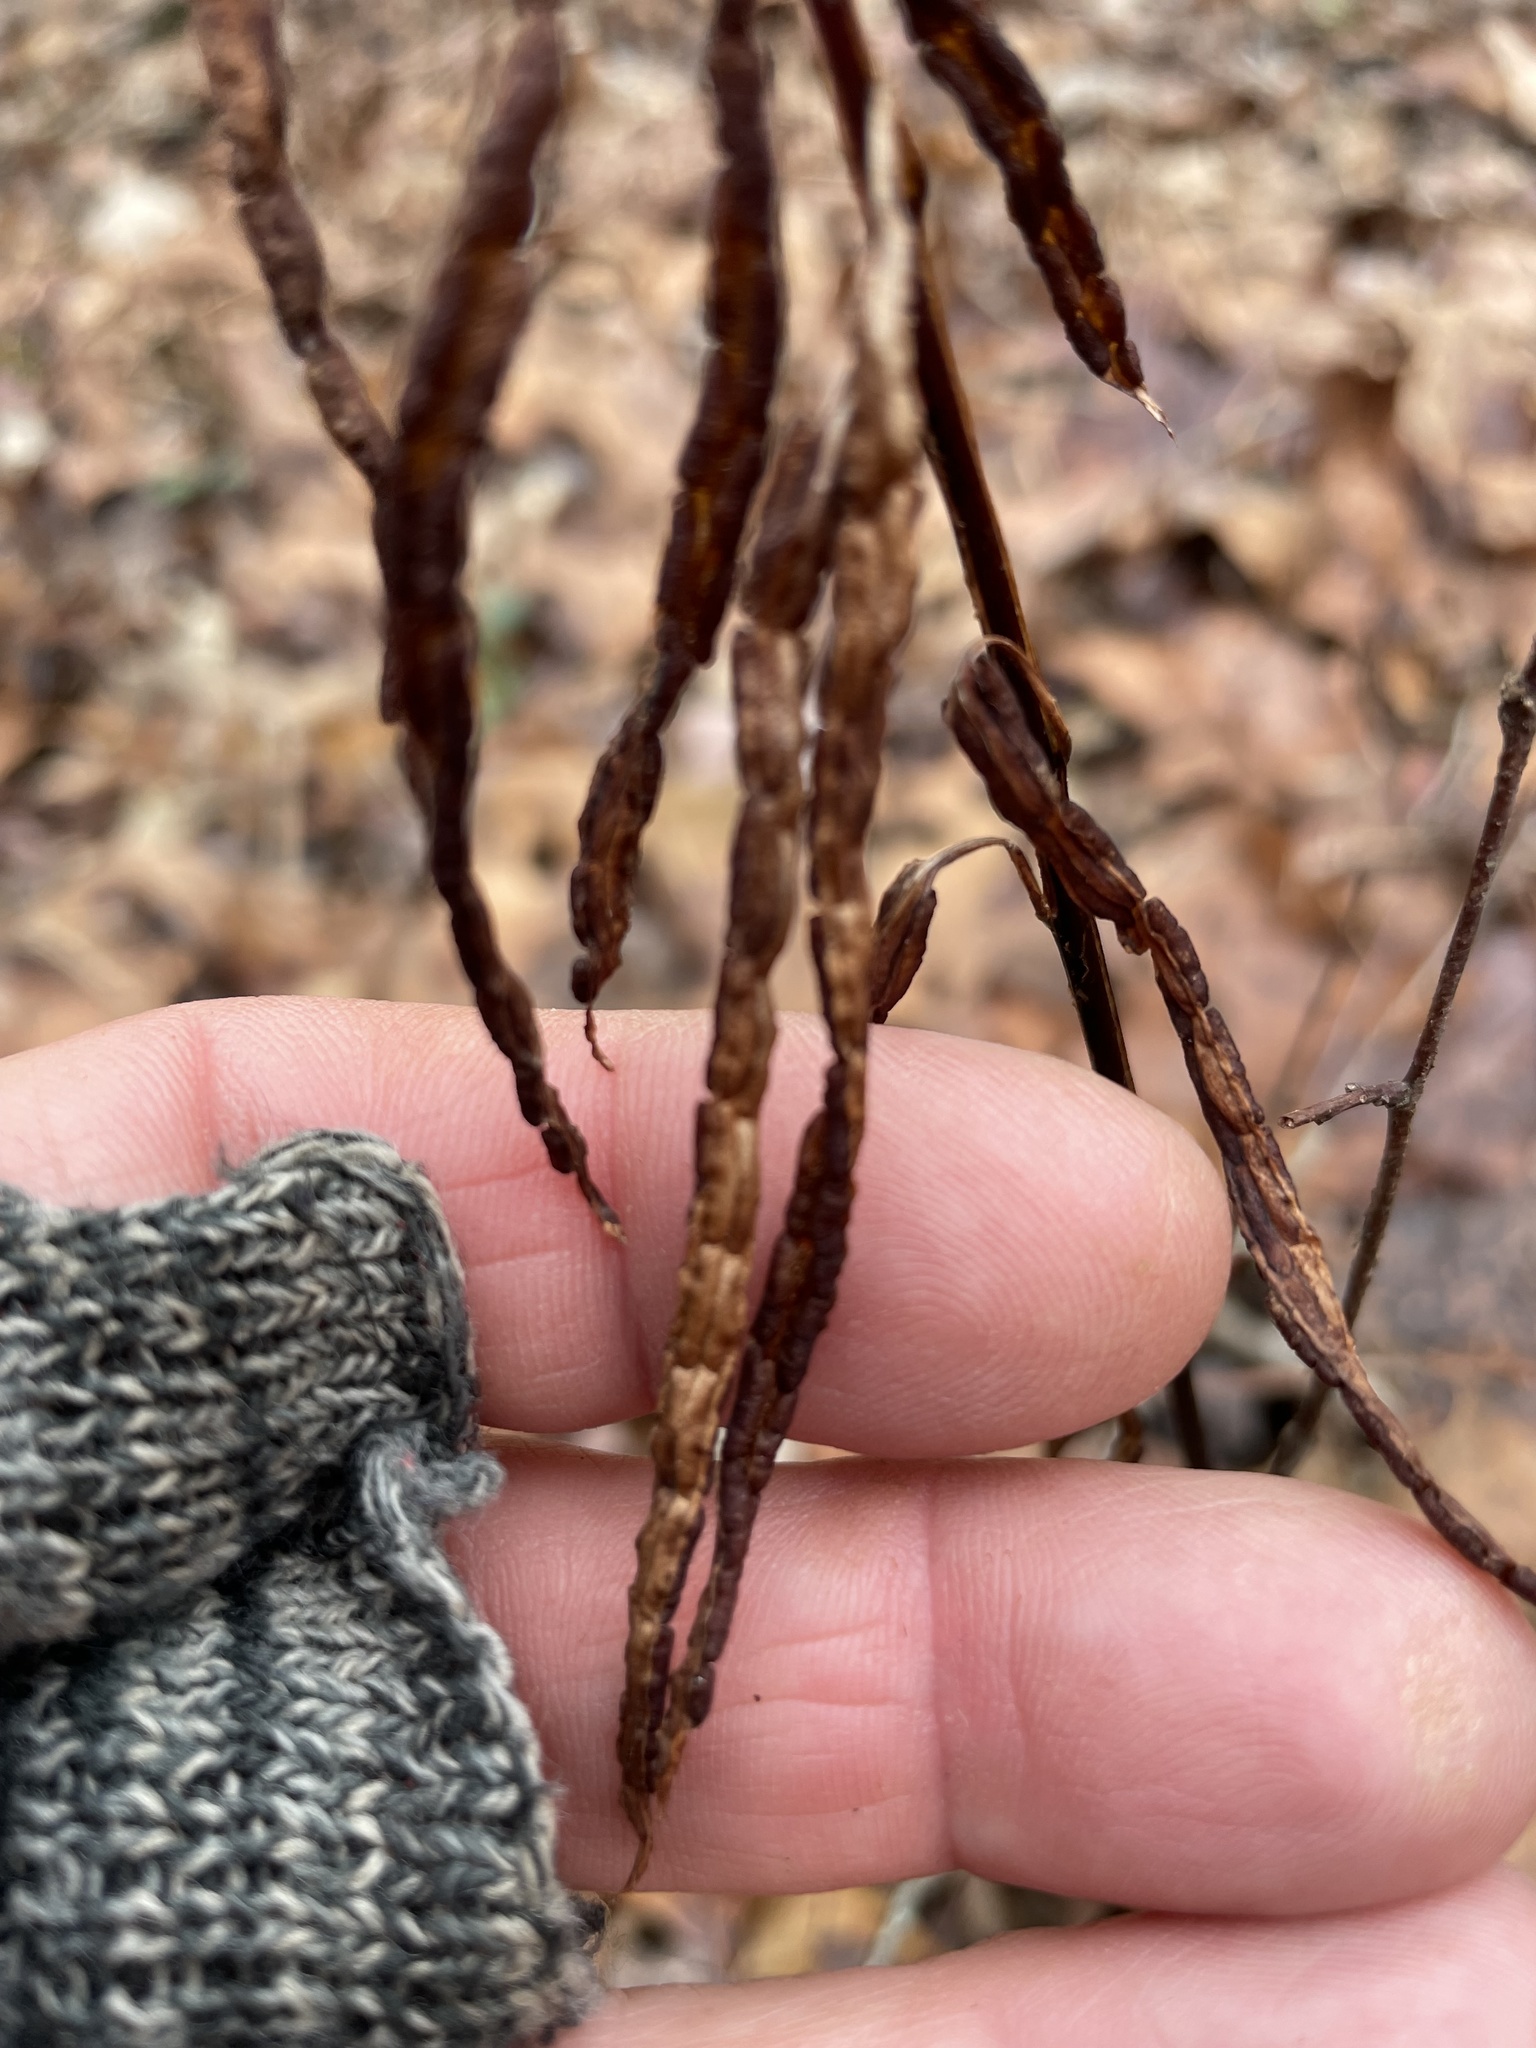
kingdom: Plantae
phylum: Tracheophyta
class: Polypodiopsida
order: Polypodiales
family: Blechnaceae
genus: Lorinseria
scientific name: Lorinseria areolata
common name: Dwarf chain fern
